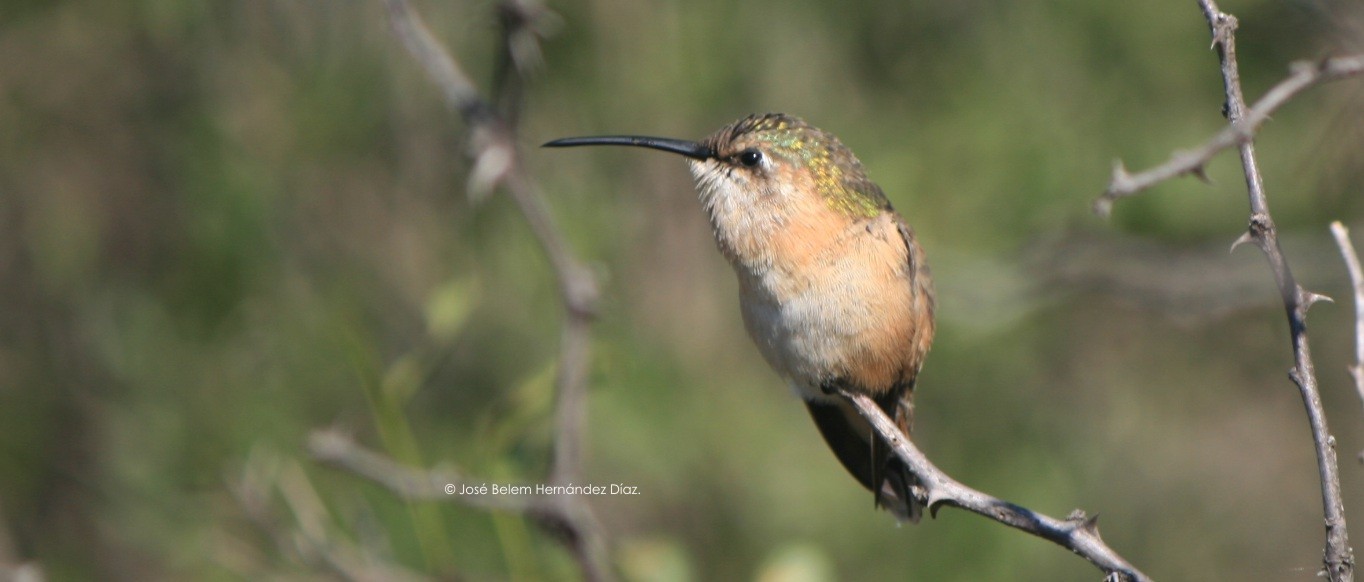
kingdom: Animalia
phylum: Chordata
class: Aves
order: Apodiformes
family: Trochilidae
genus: Calothorax
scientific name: Calothorax lucifer
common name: Lucifer sheartail
